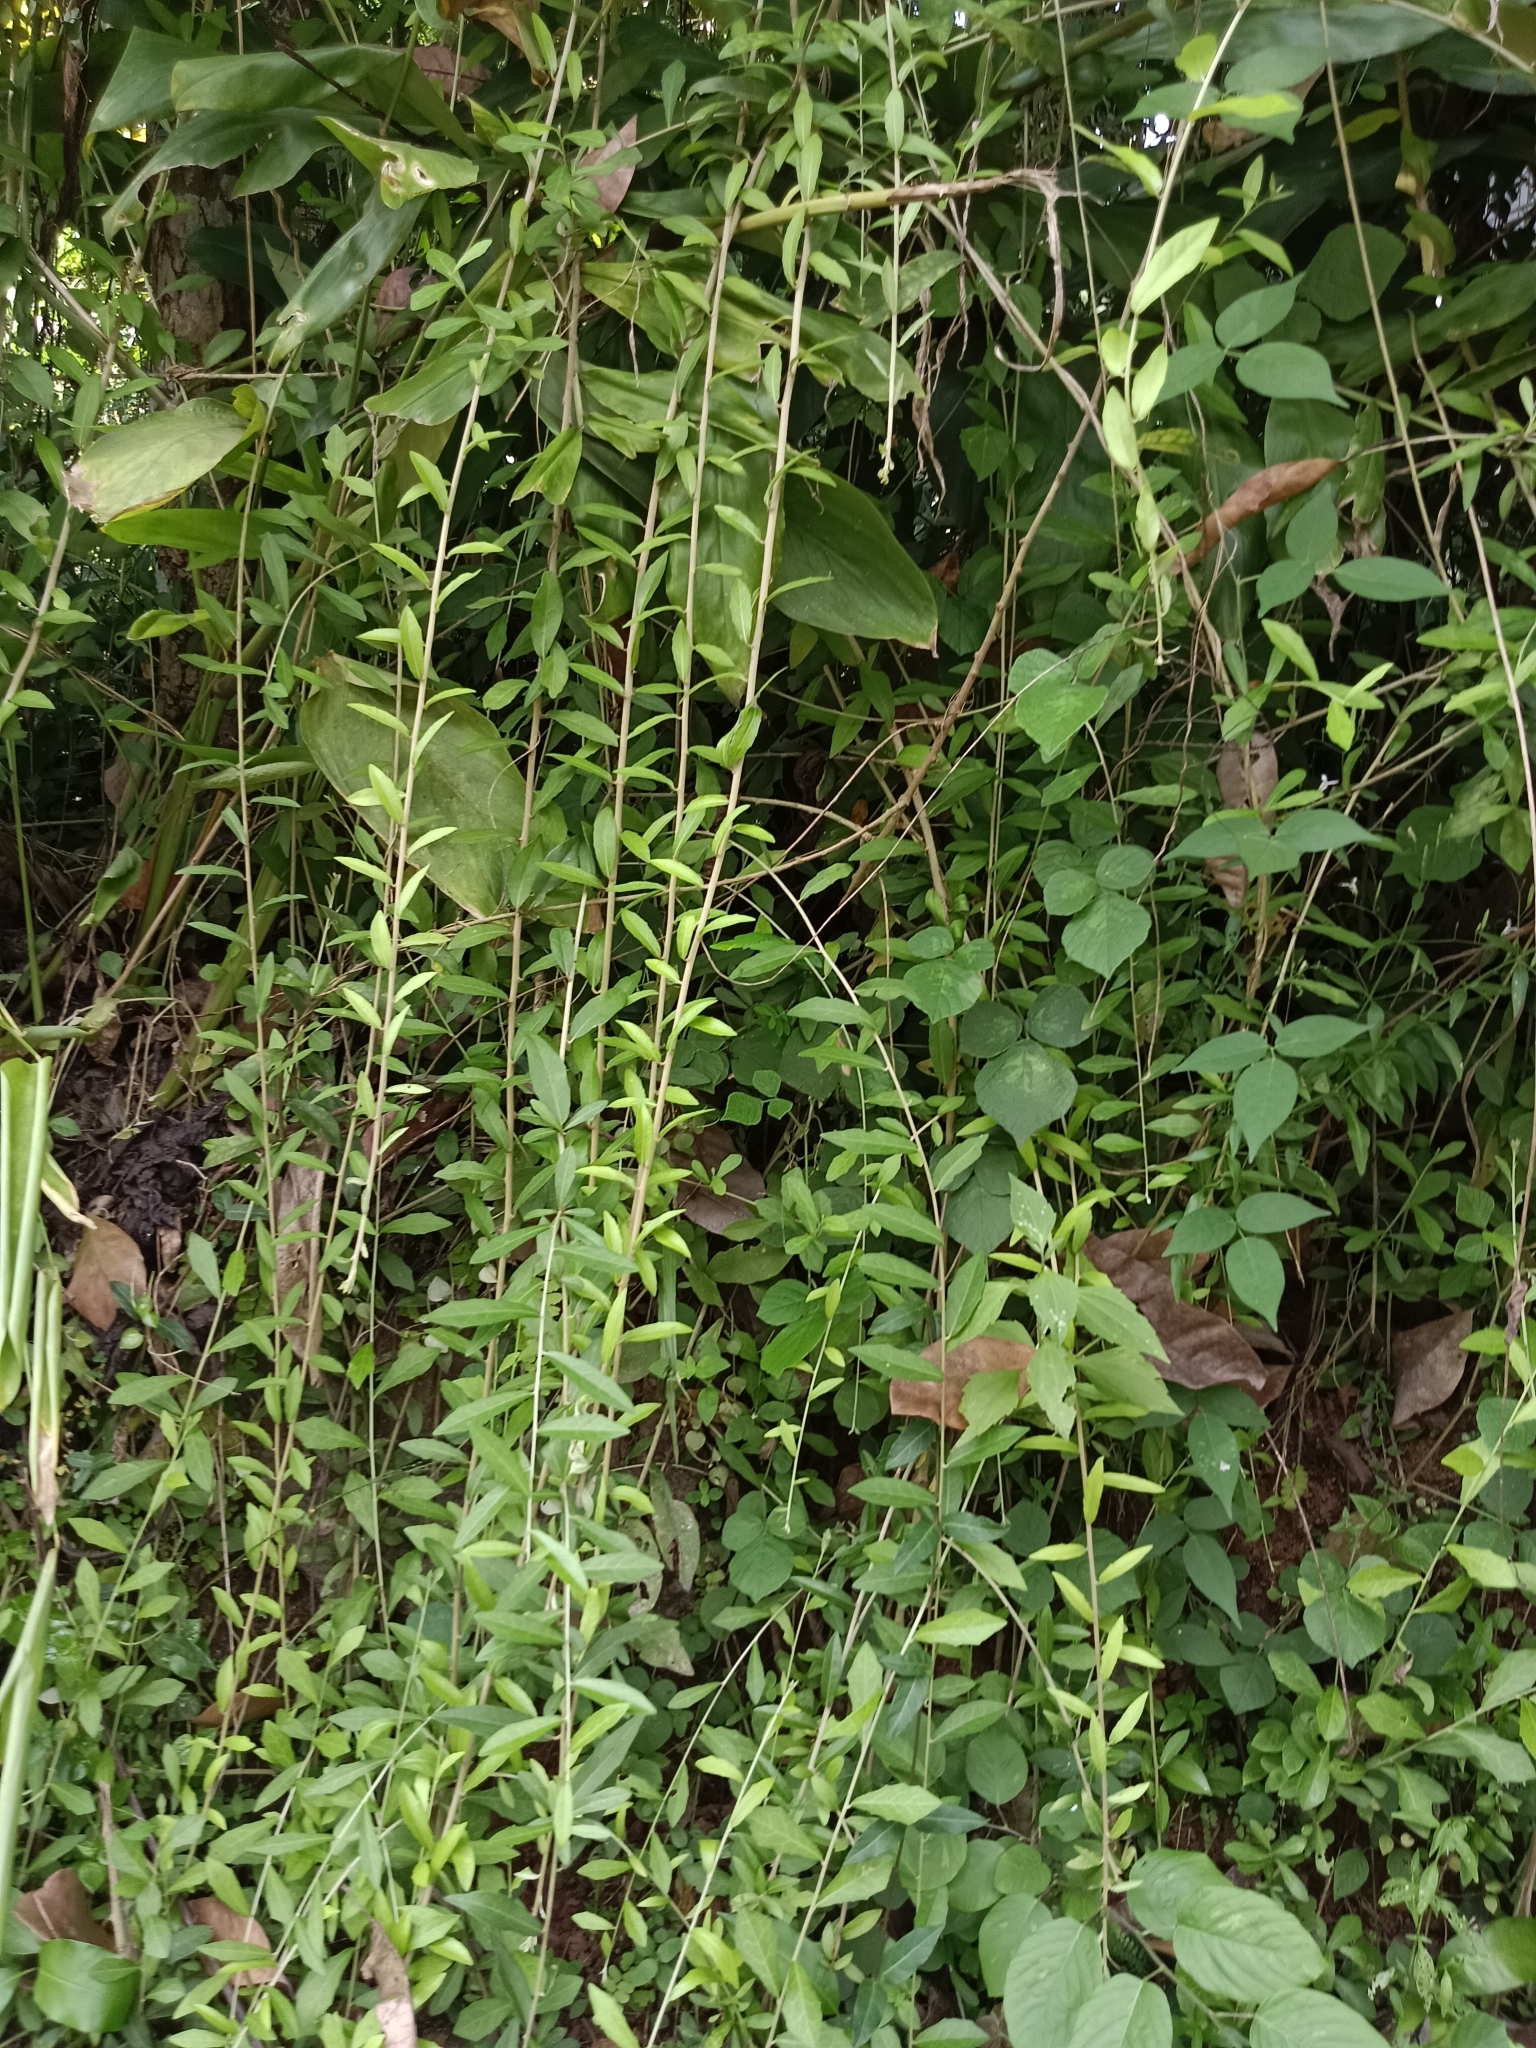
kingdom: Plantae
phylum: Tracheophyta
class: Magnoliopsida
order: Asterales
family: Asteraceae
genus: Tarlmounia
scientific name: Tarlmounia elliptica
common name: Kheua sa lot
